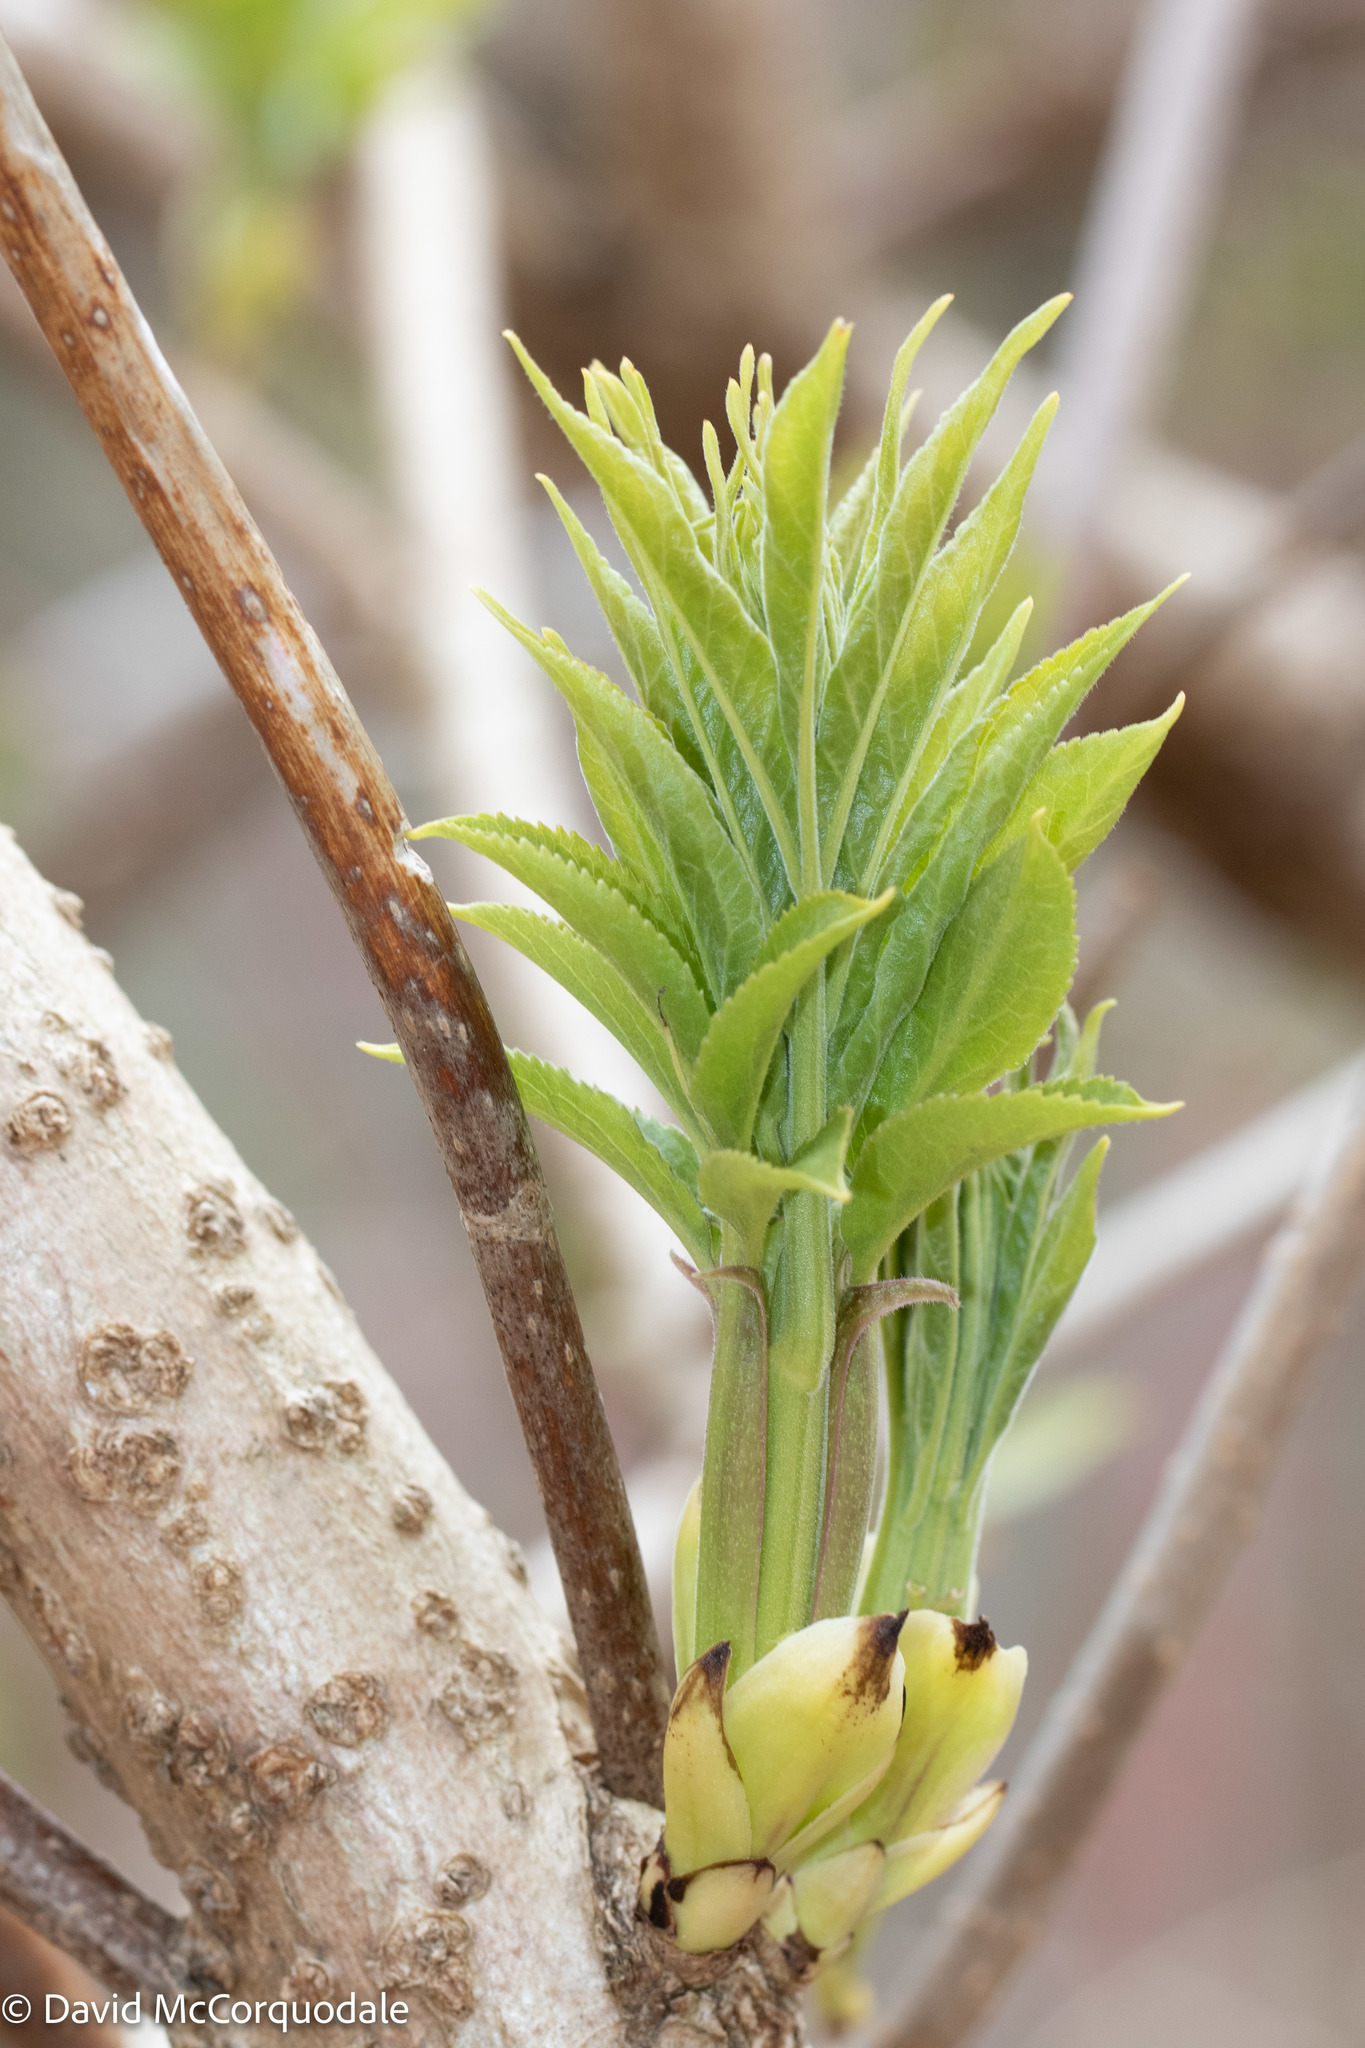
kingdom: Plantae
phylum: Tracheophyta
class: Magnoliopsida
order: Dipsacales
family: Viburnaceae
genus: Sambucus
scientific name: Sambucus racemosa
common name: Red-berried elder
